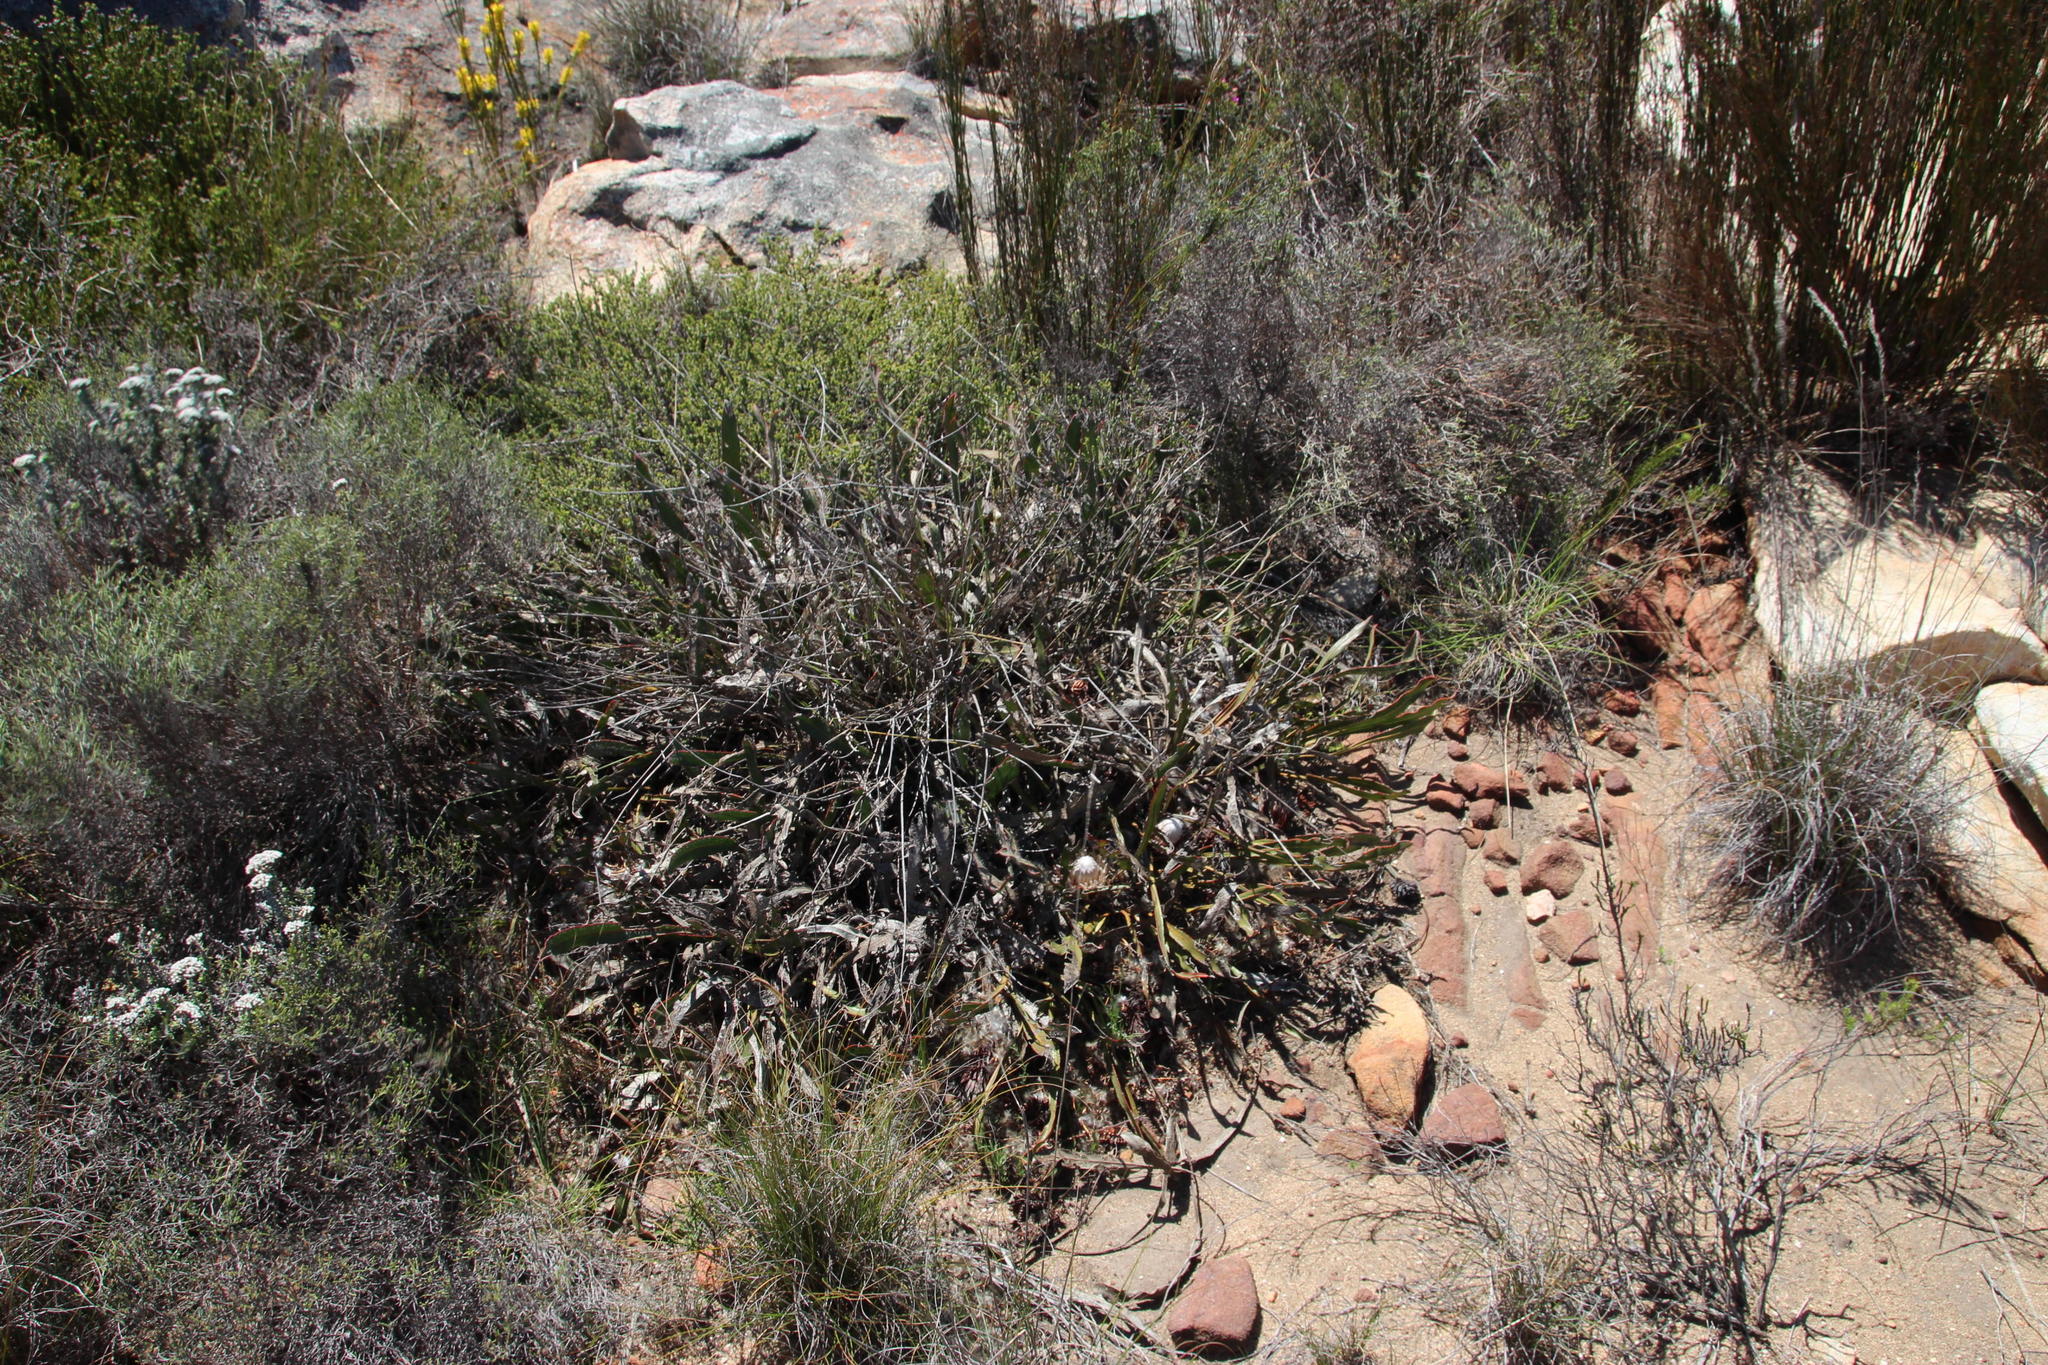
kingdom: Plantae
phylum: Tracheophyta
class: Magnoliopsida
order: Proteales
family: Proteaceae
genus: Protea
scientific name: Protea scolopendriifolia
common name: Harts-tongue-fern sugarbush
